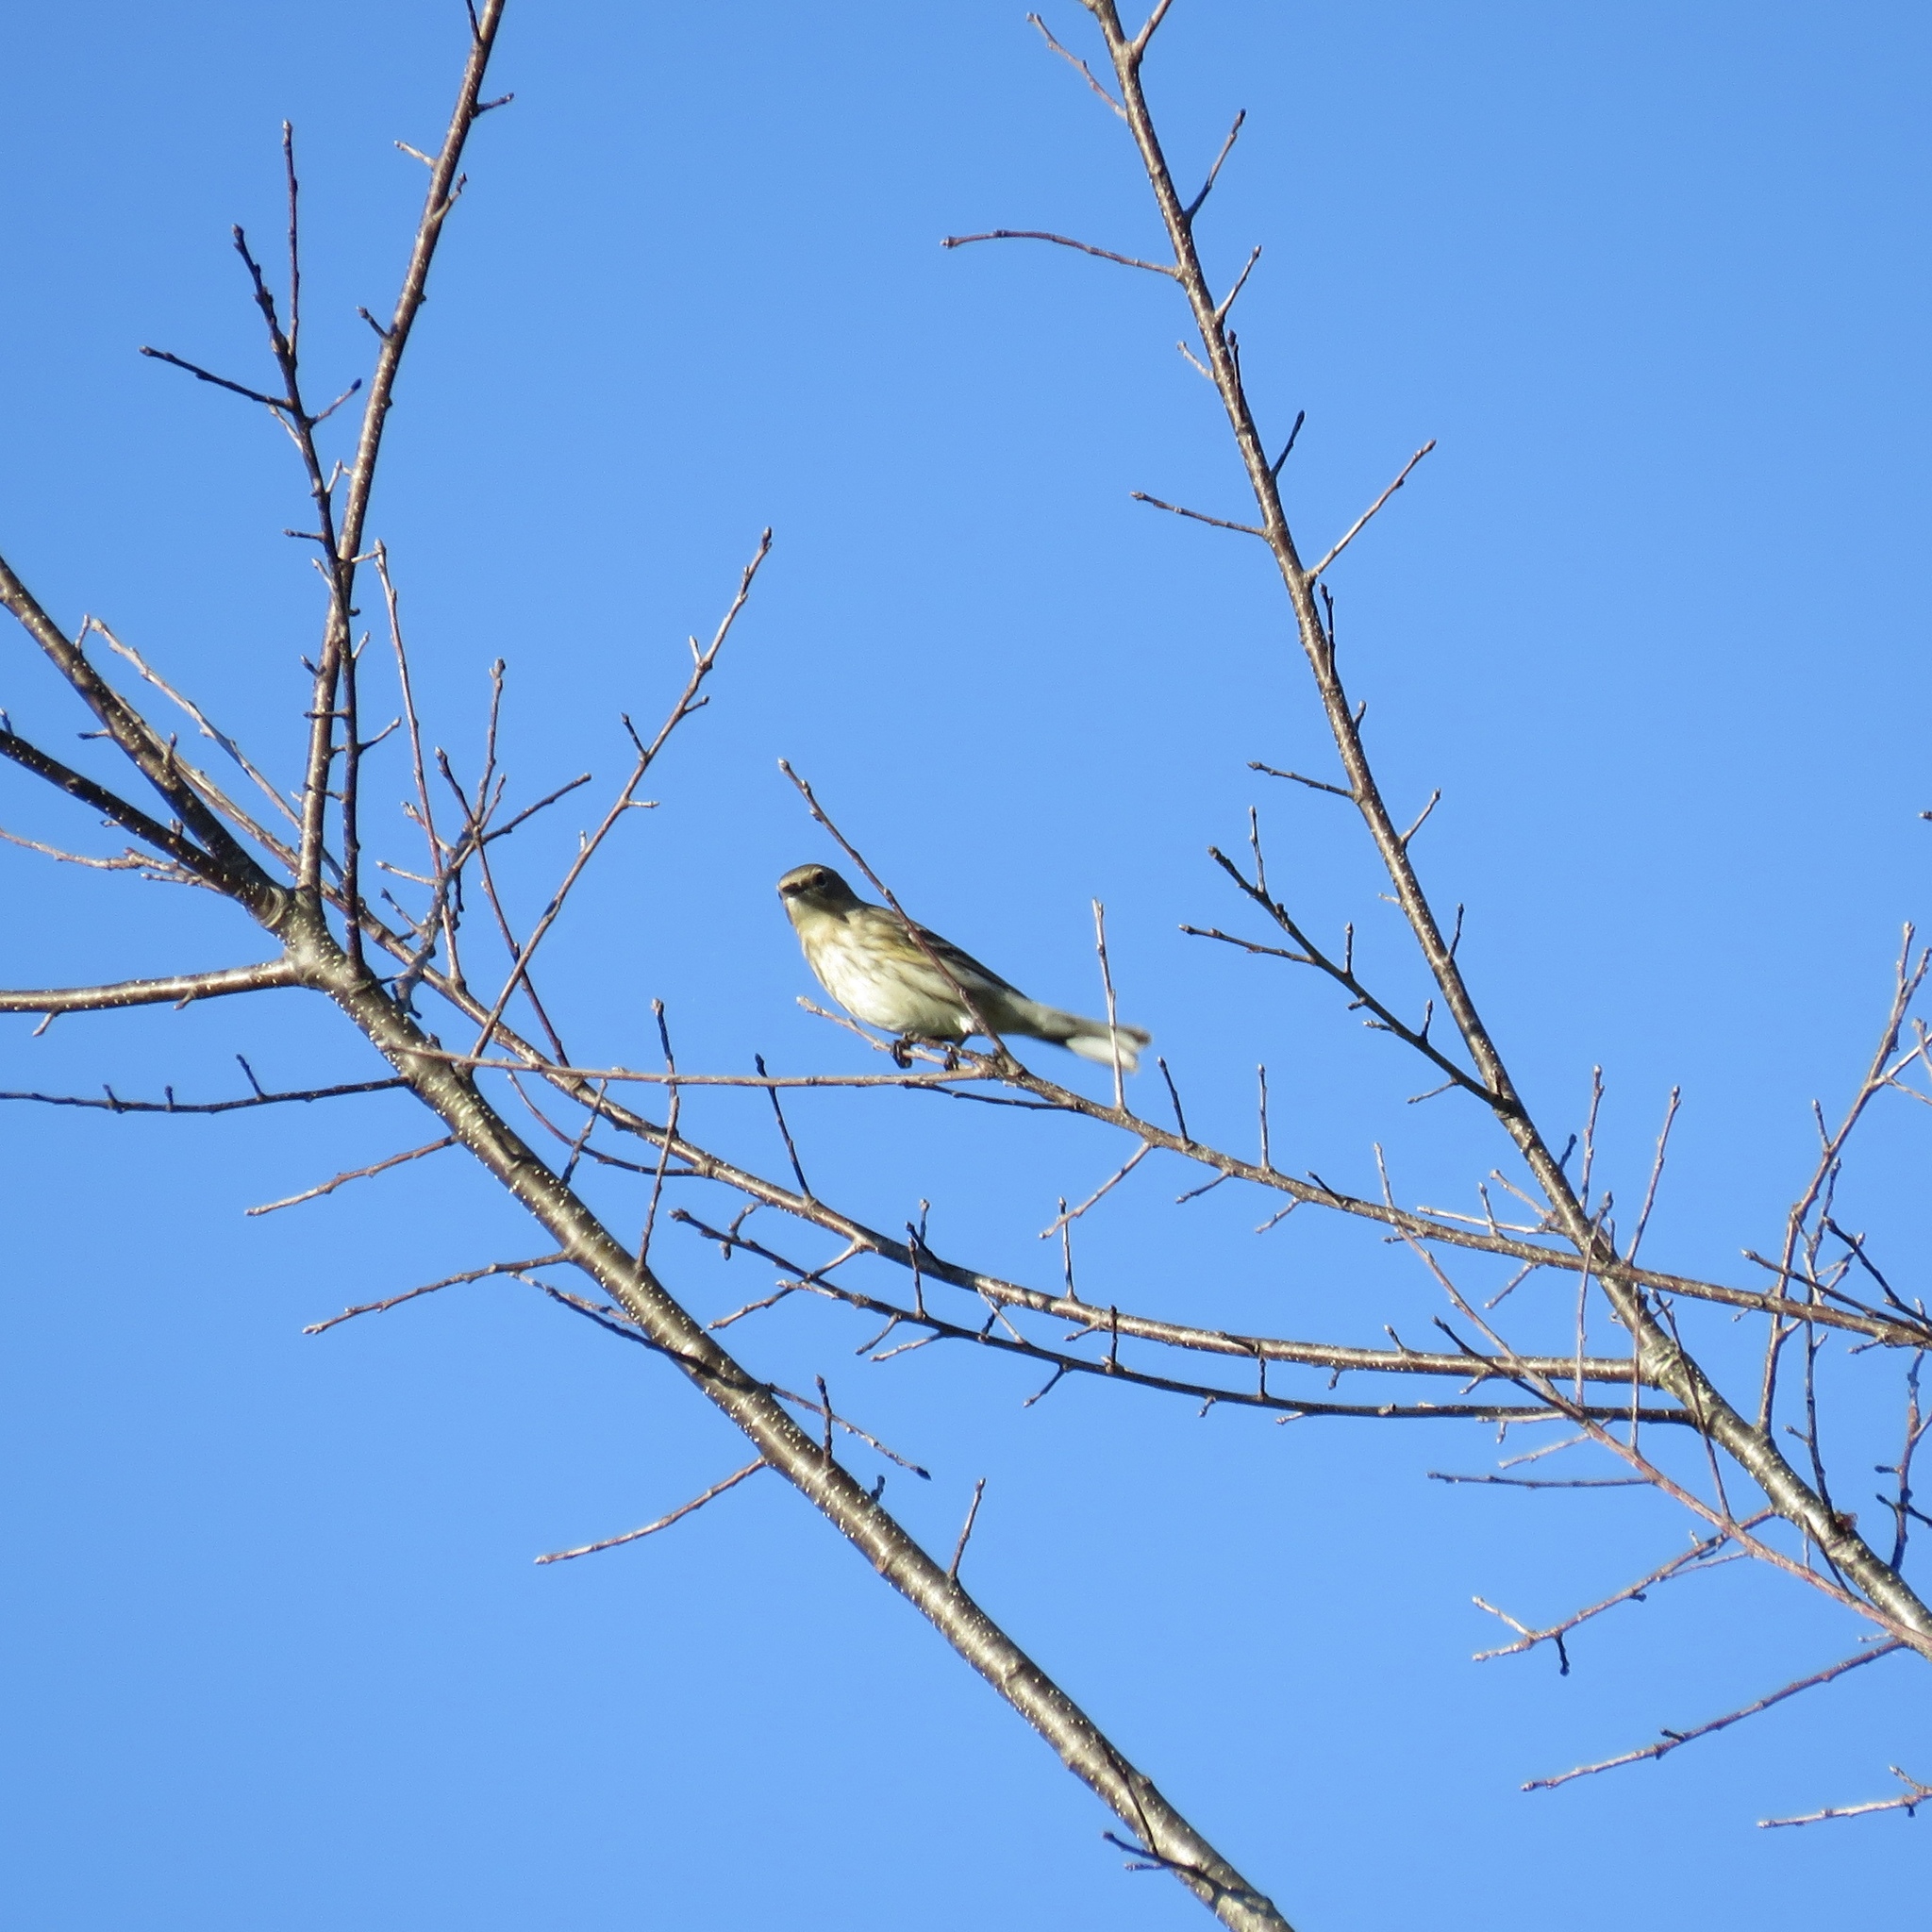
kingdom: Animalia
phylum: Chordata
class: Aves
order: Passeriformes
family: Parulidae
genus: Setophaga
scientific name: Setophaga coronata
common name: Myrtle warbler
